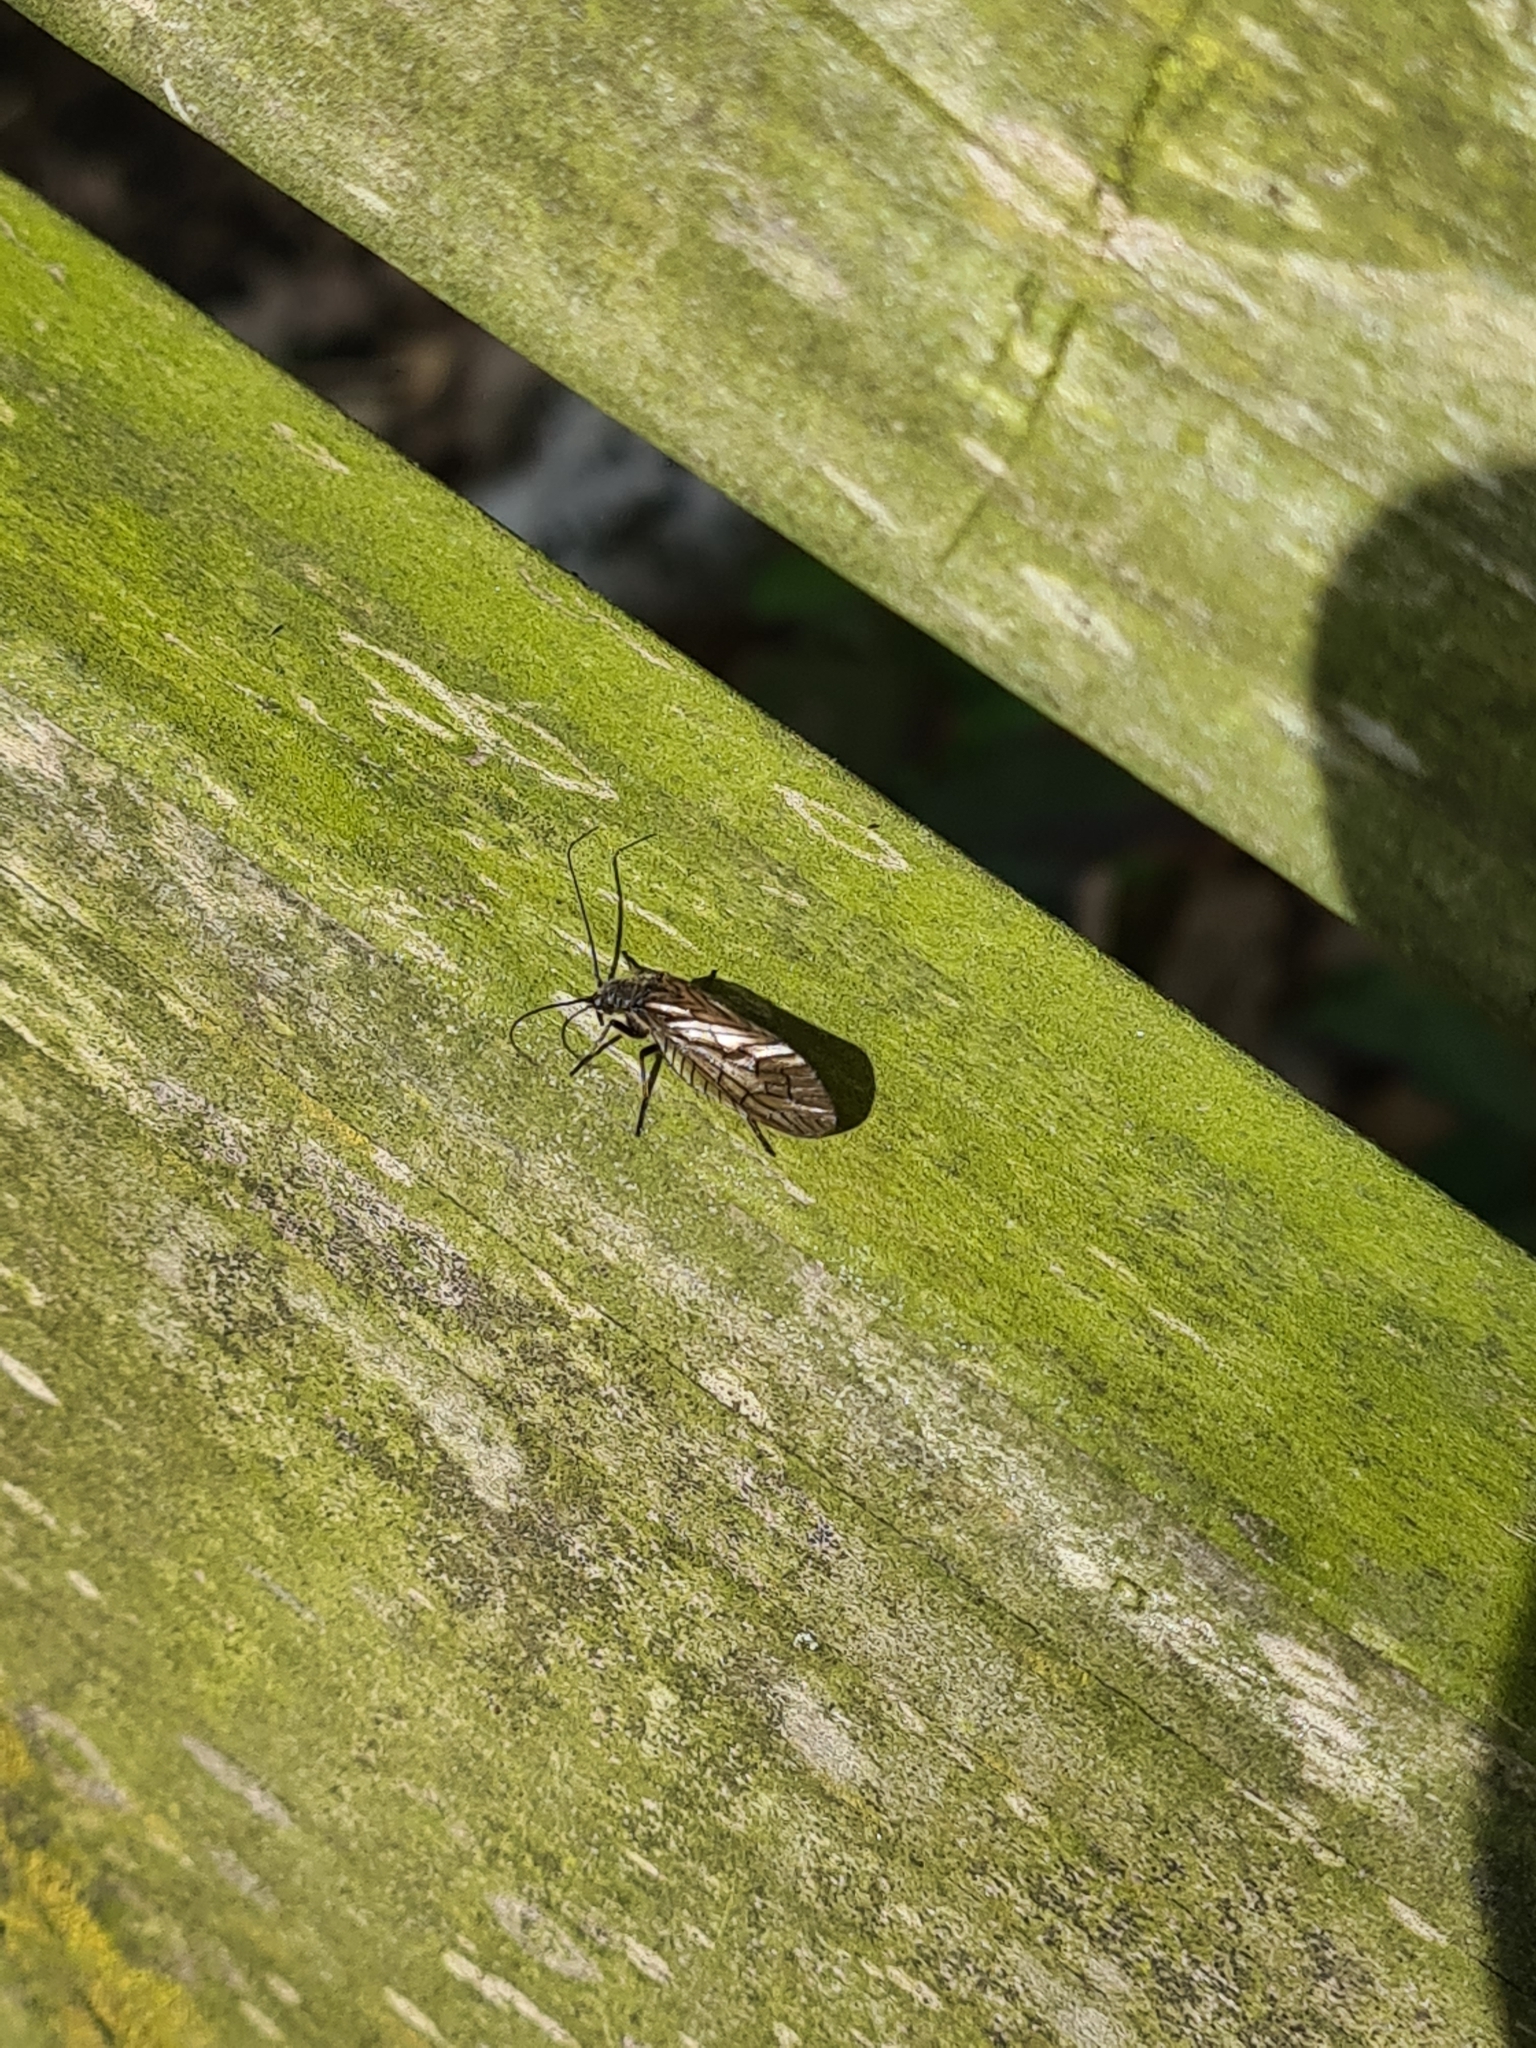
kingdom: Animalia
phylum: Arthropoda
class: Insecta
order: Megaloptera
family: Sialidae
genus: Sialis
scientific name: Sialis
